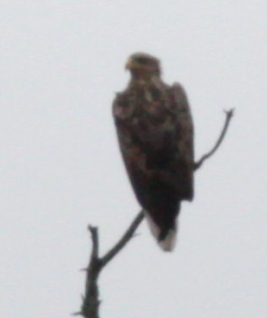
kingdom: Animalia
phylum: Chordata
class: Aves
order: Accipitriformes
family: Accipitridae
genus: Haliaeetus
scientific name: Haliaeetus albicilla
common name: White-tailed eagle
